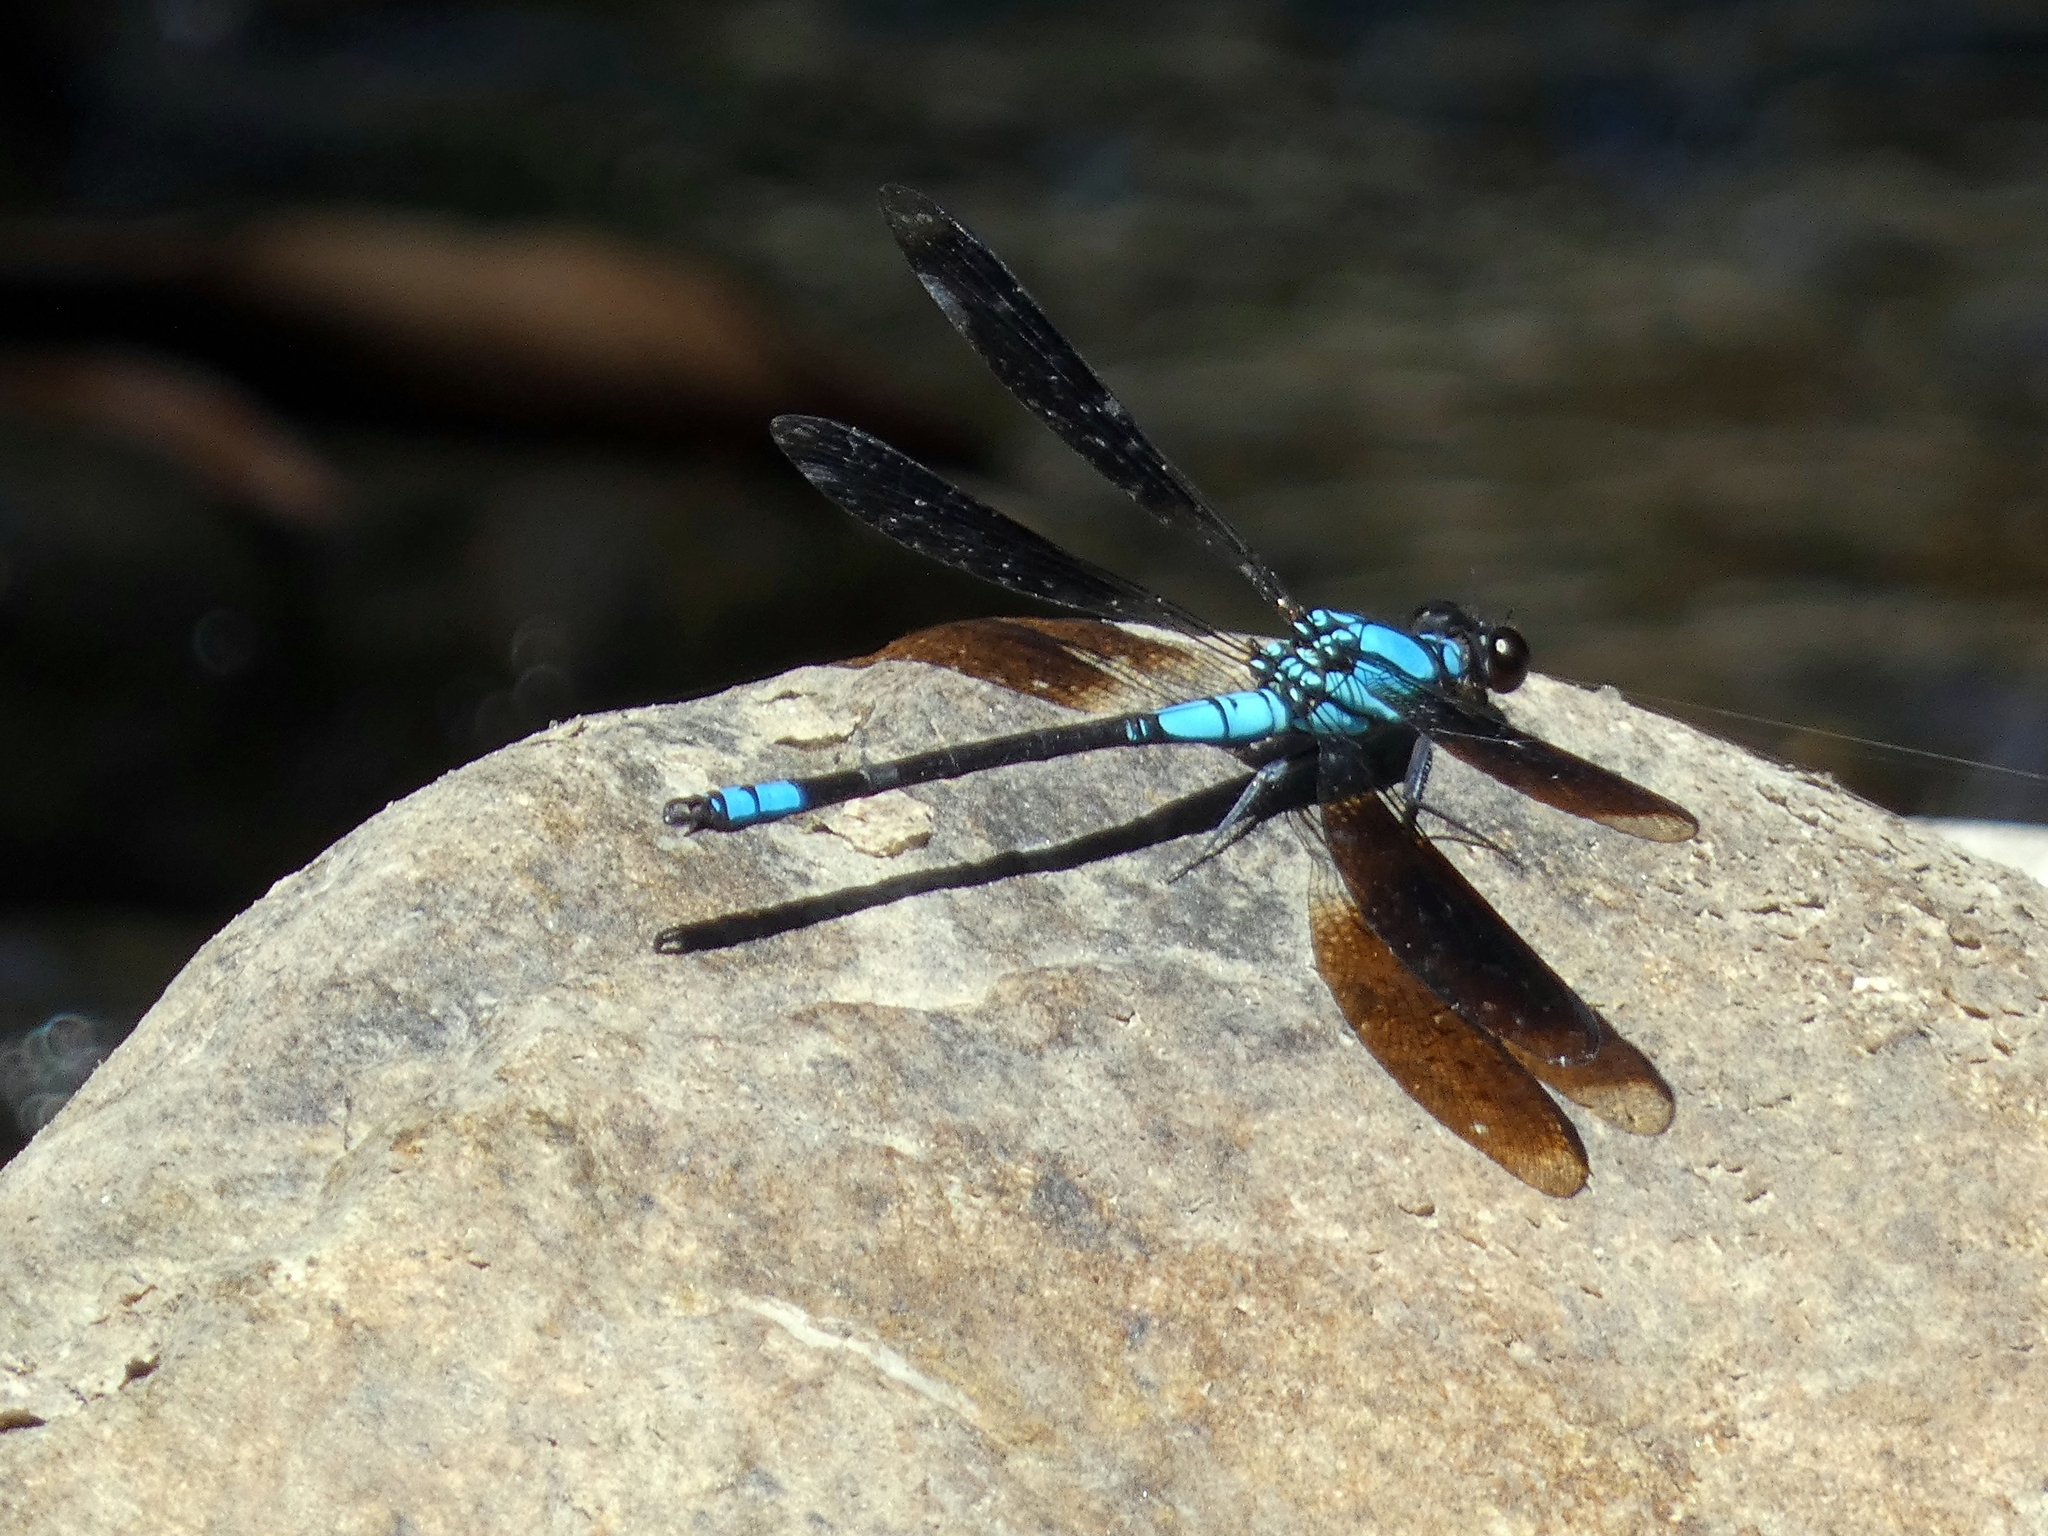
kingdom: Animalia
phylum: Arthropoda
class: Insecta
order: Odonata
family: Lestoideidae
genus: Diphlebia
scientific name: Diphlebia euphoeoides
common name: Tropical rockmaster
